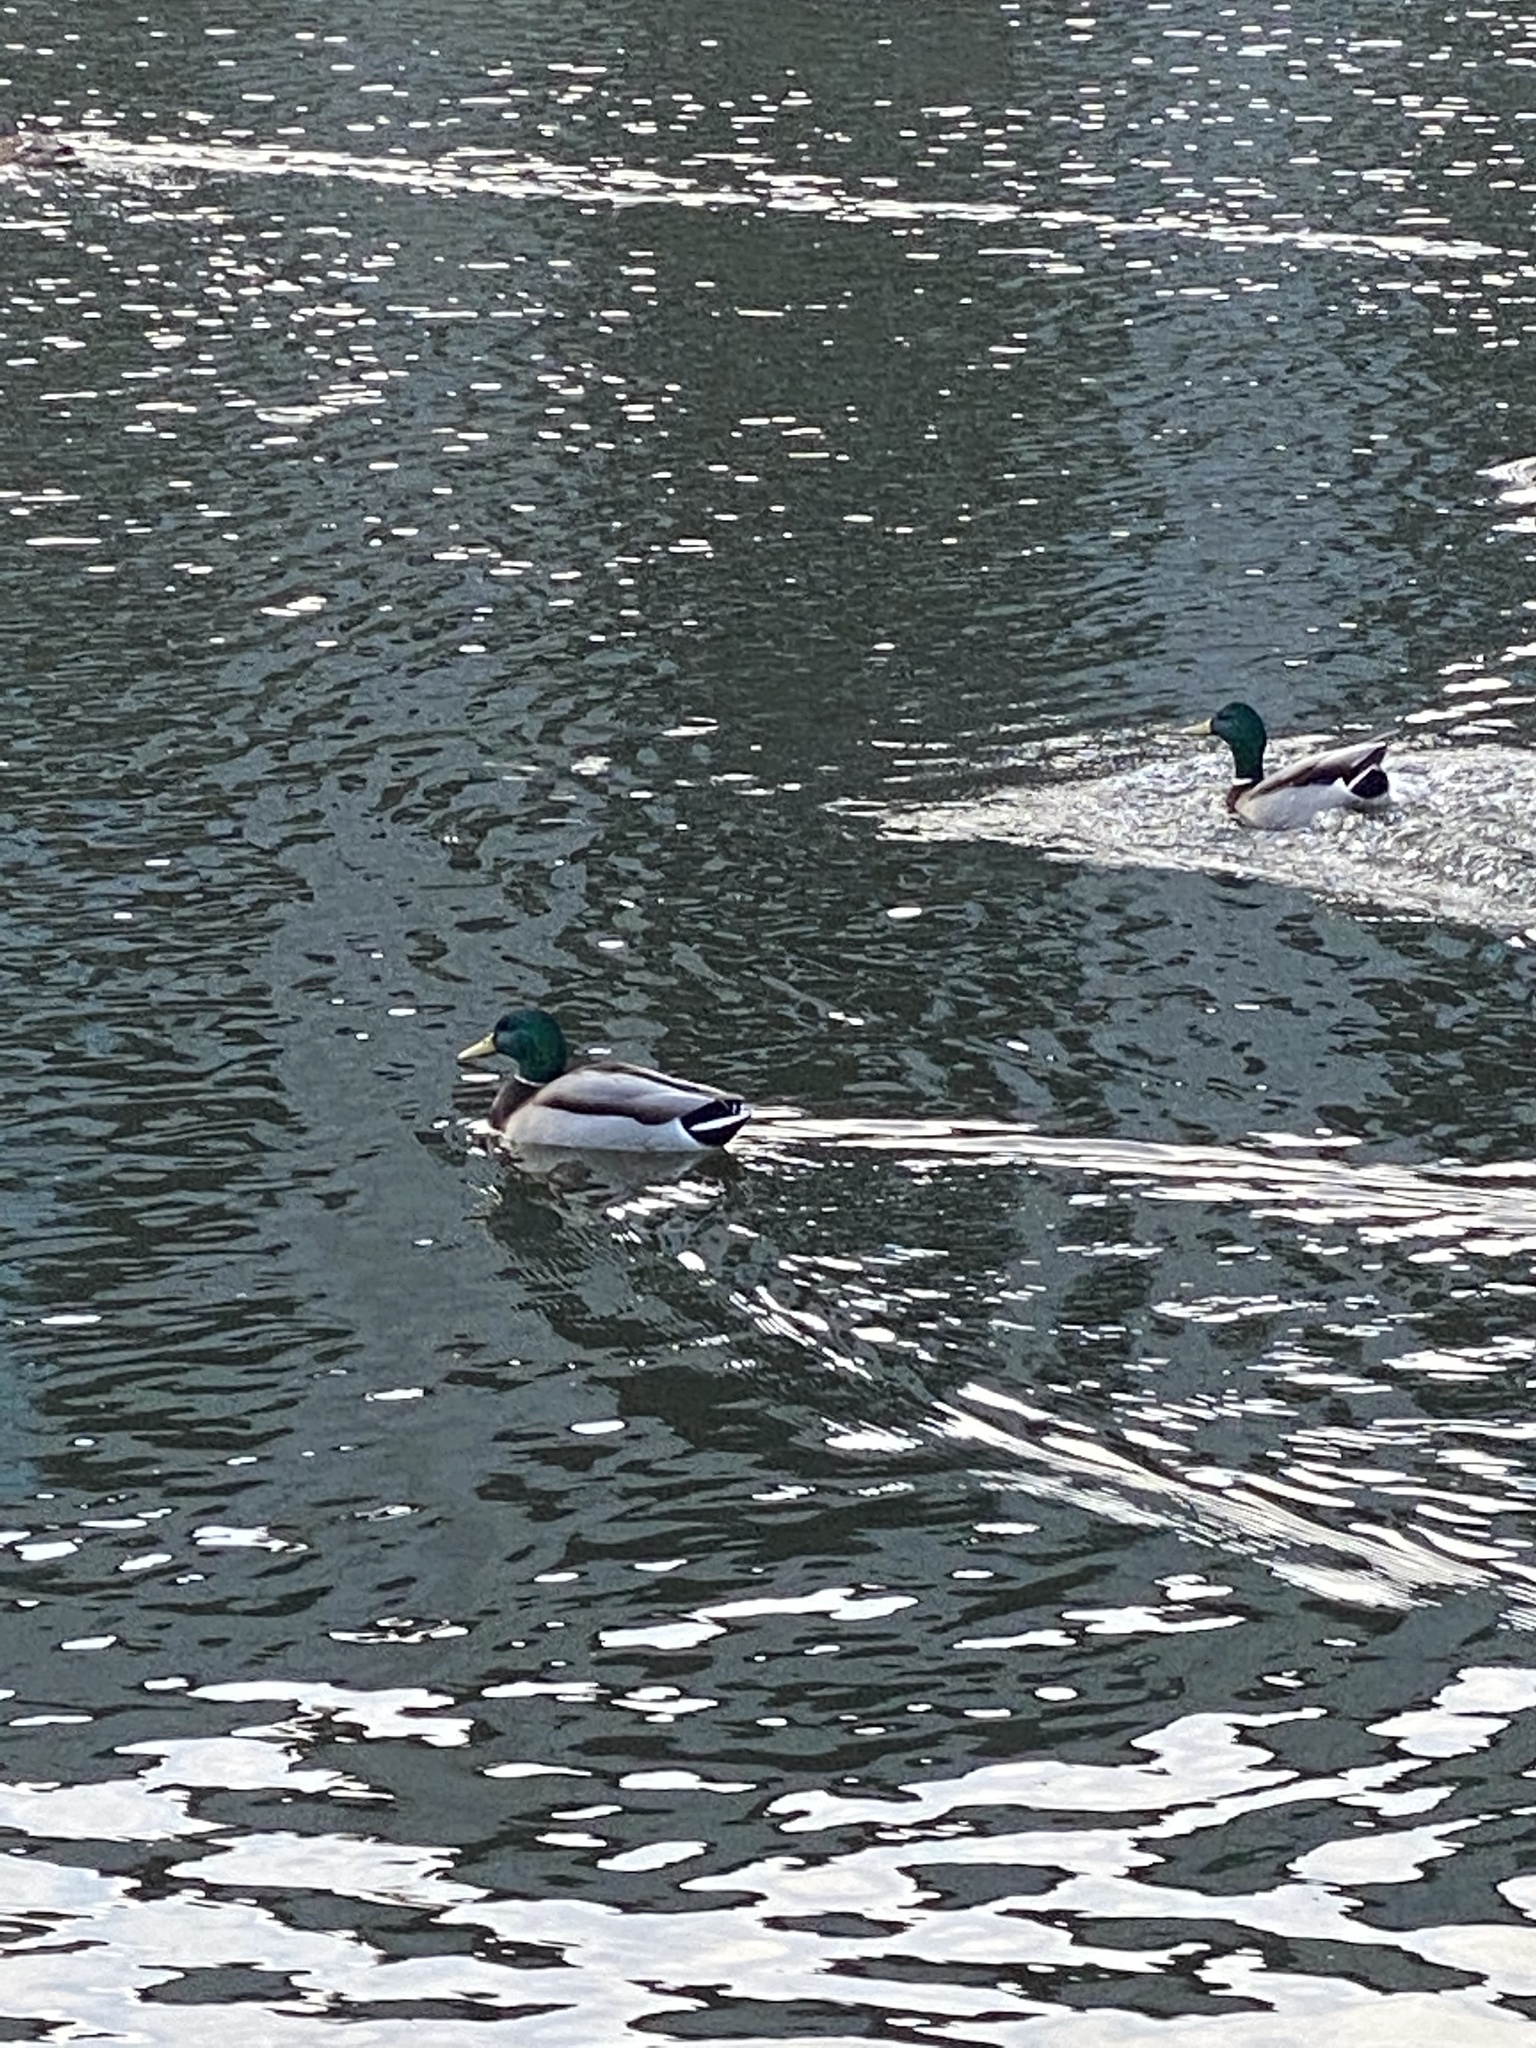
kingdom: Animalia
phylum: Chordata
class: Aves
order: Anseriformes
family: Anatidae
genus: Anas
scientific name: Anas platyrhynchos
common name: Mallard
